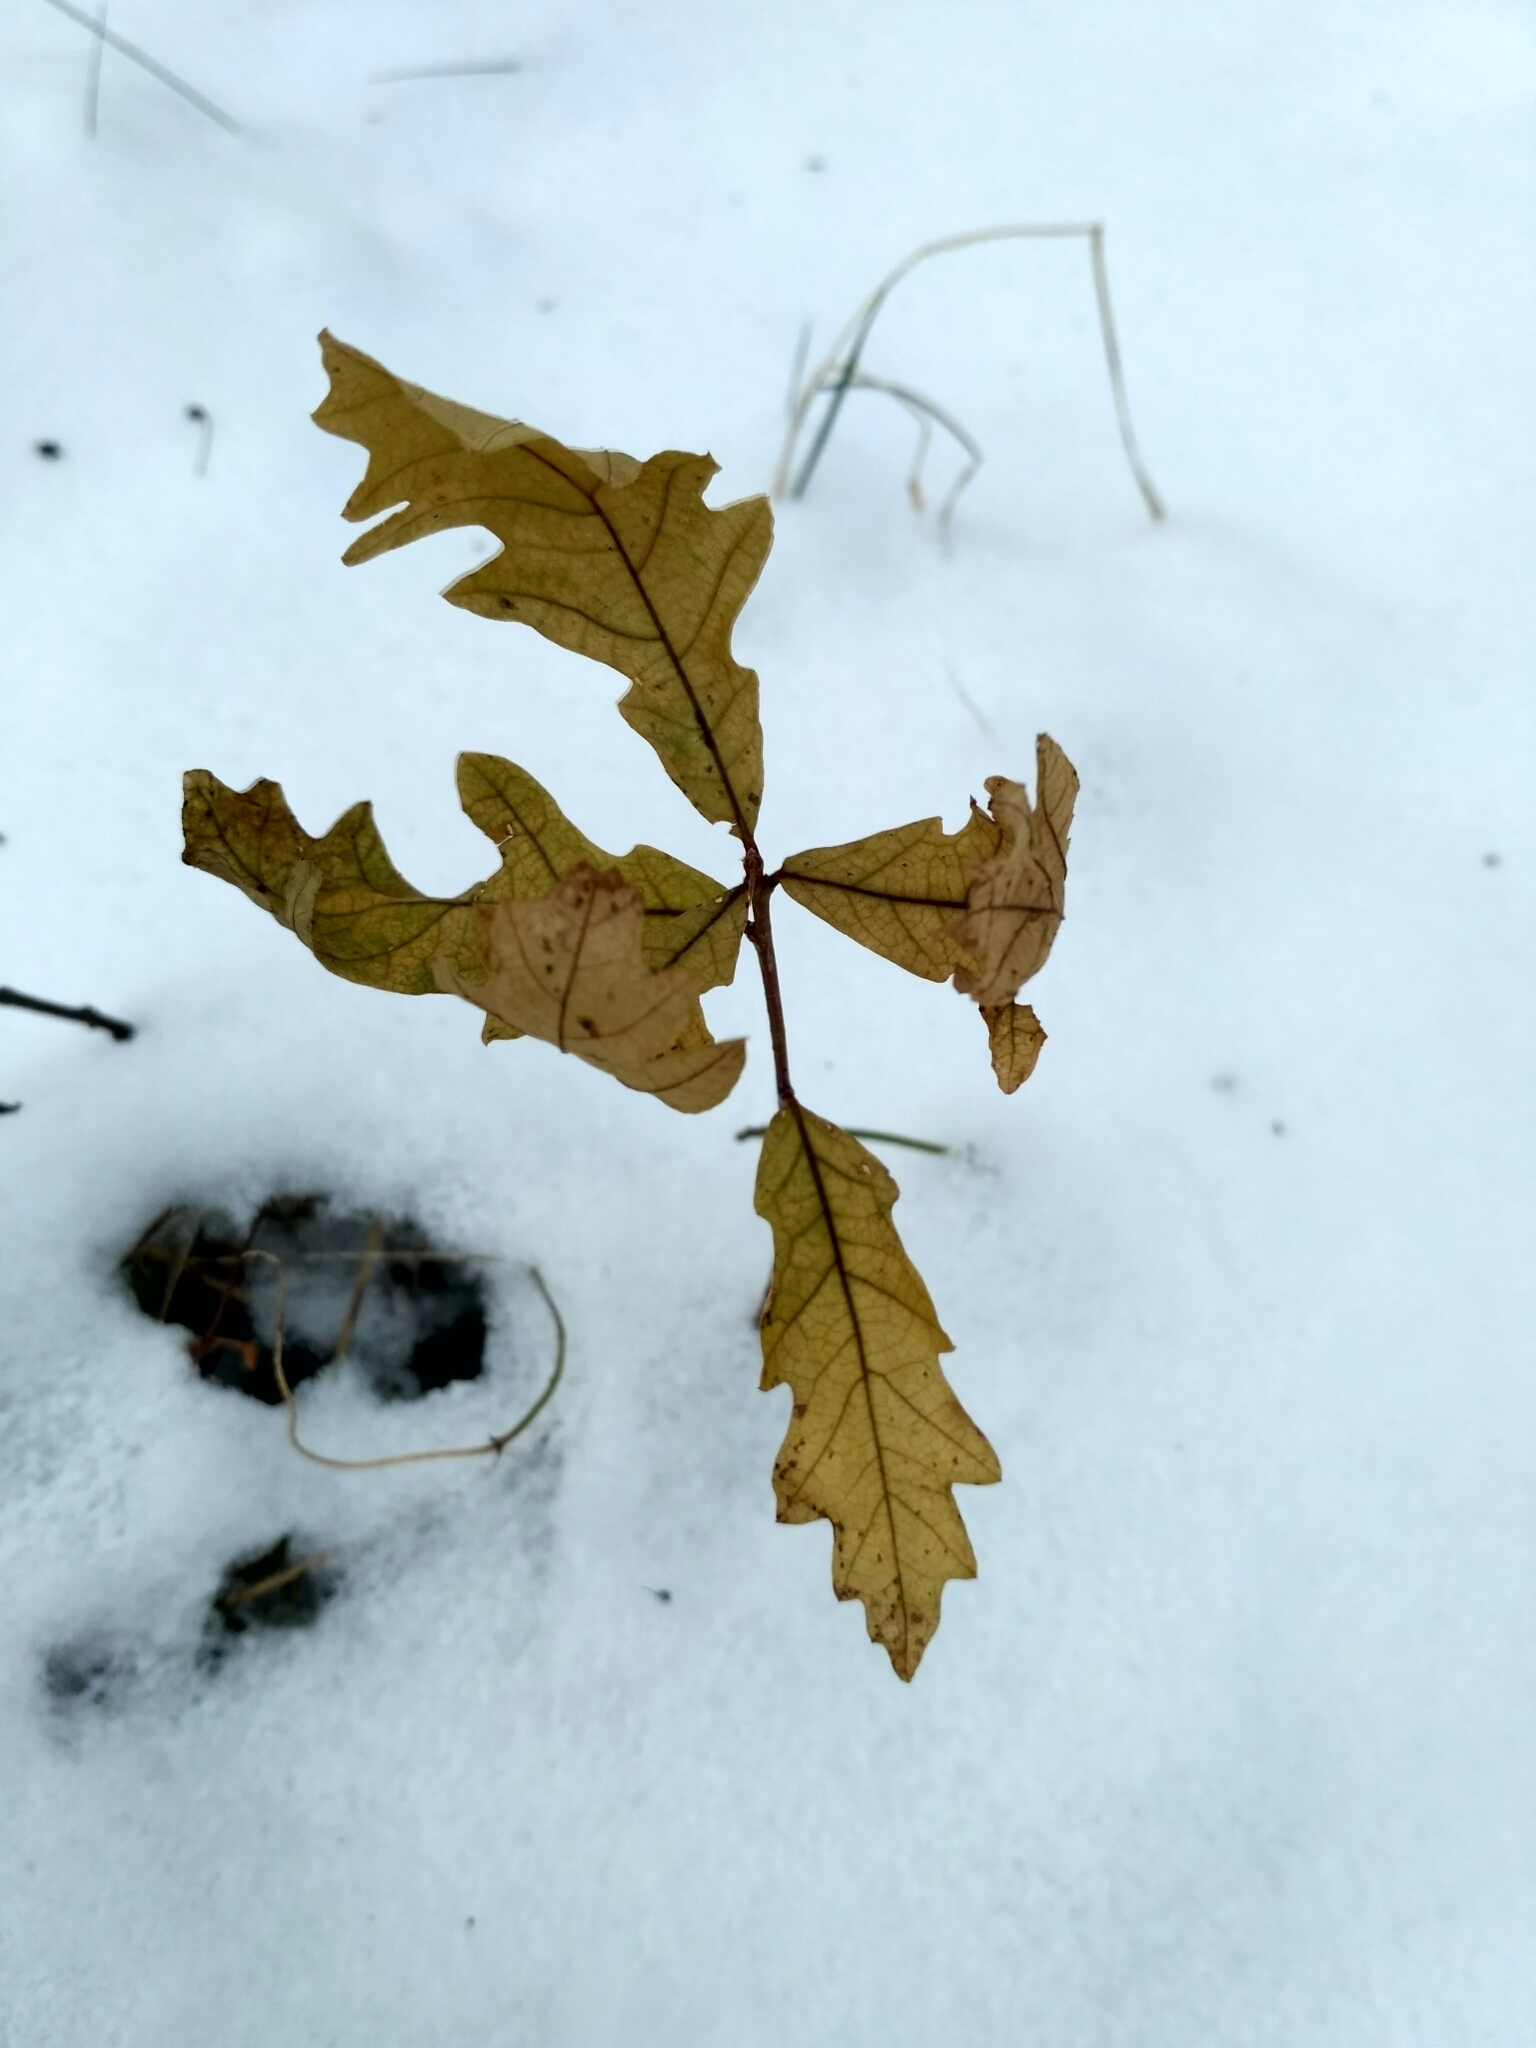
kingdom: Plantae
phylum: Tracheophyta
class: Magnoliopsida
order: Fagales
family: Fagaceae
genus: Quercus
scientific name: Quercus robur
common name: Pedunculate oak
